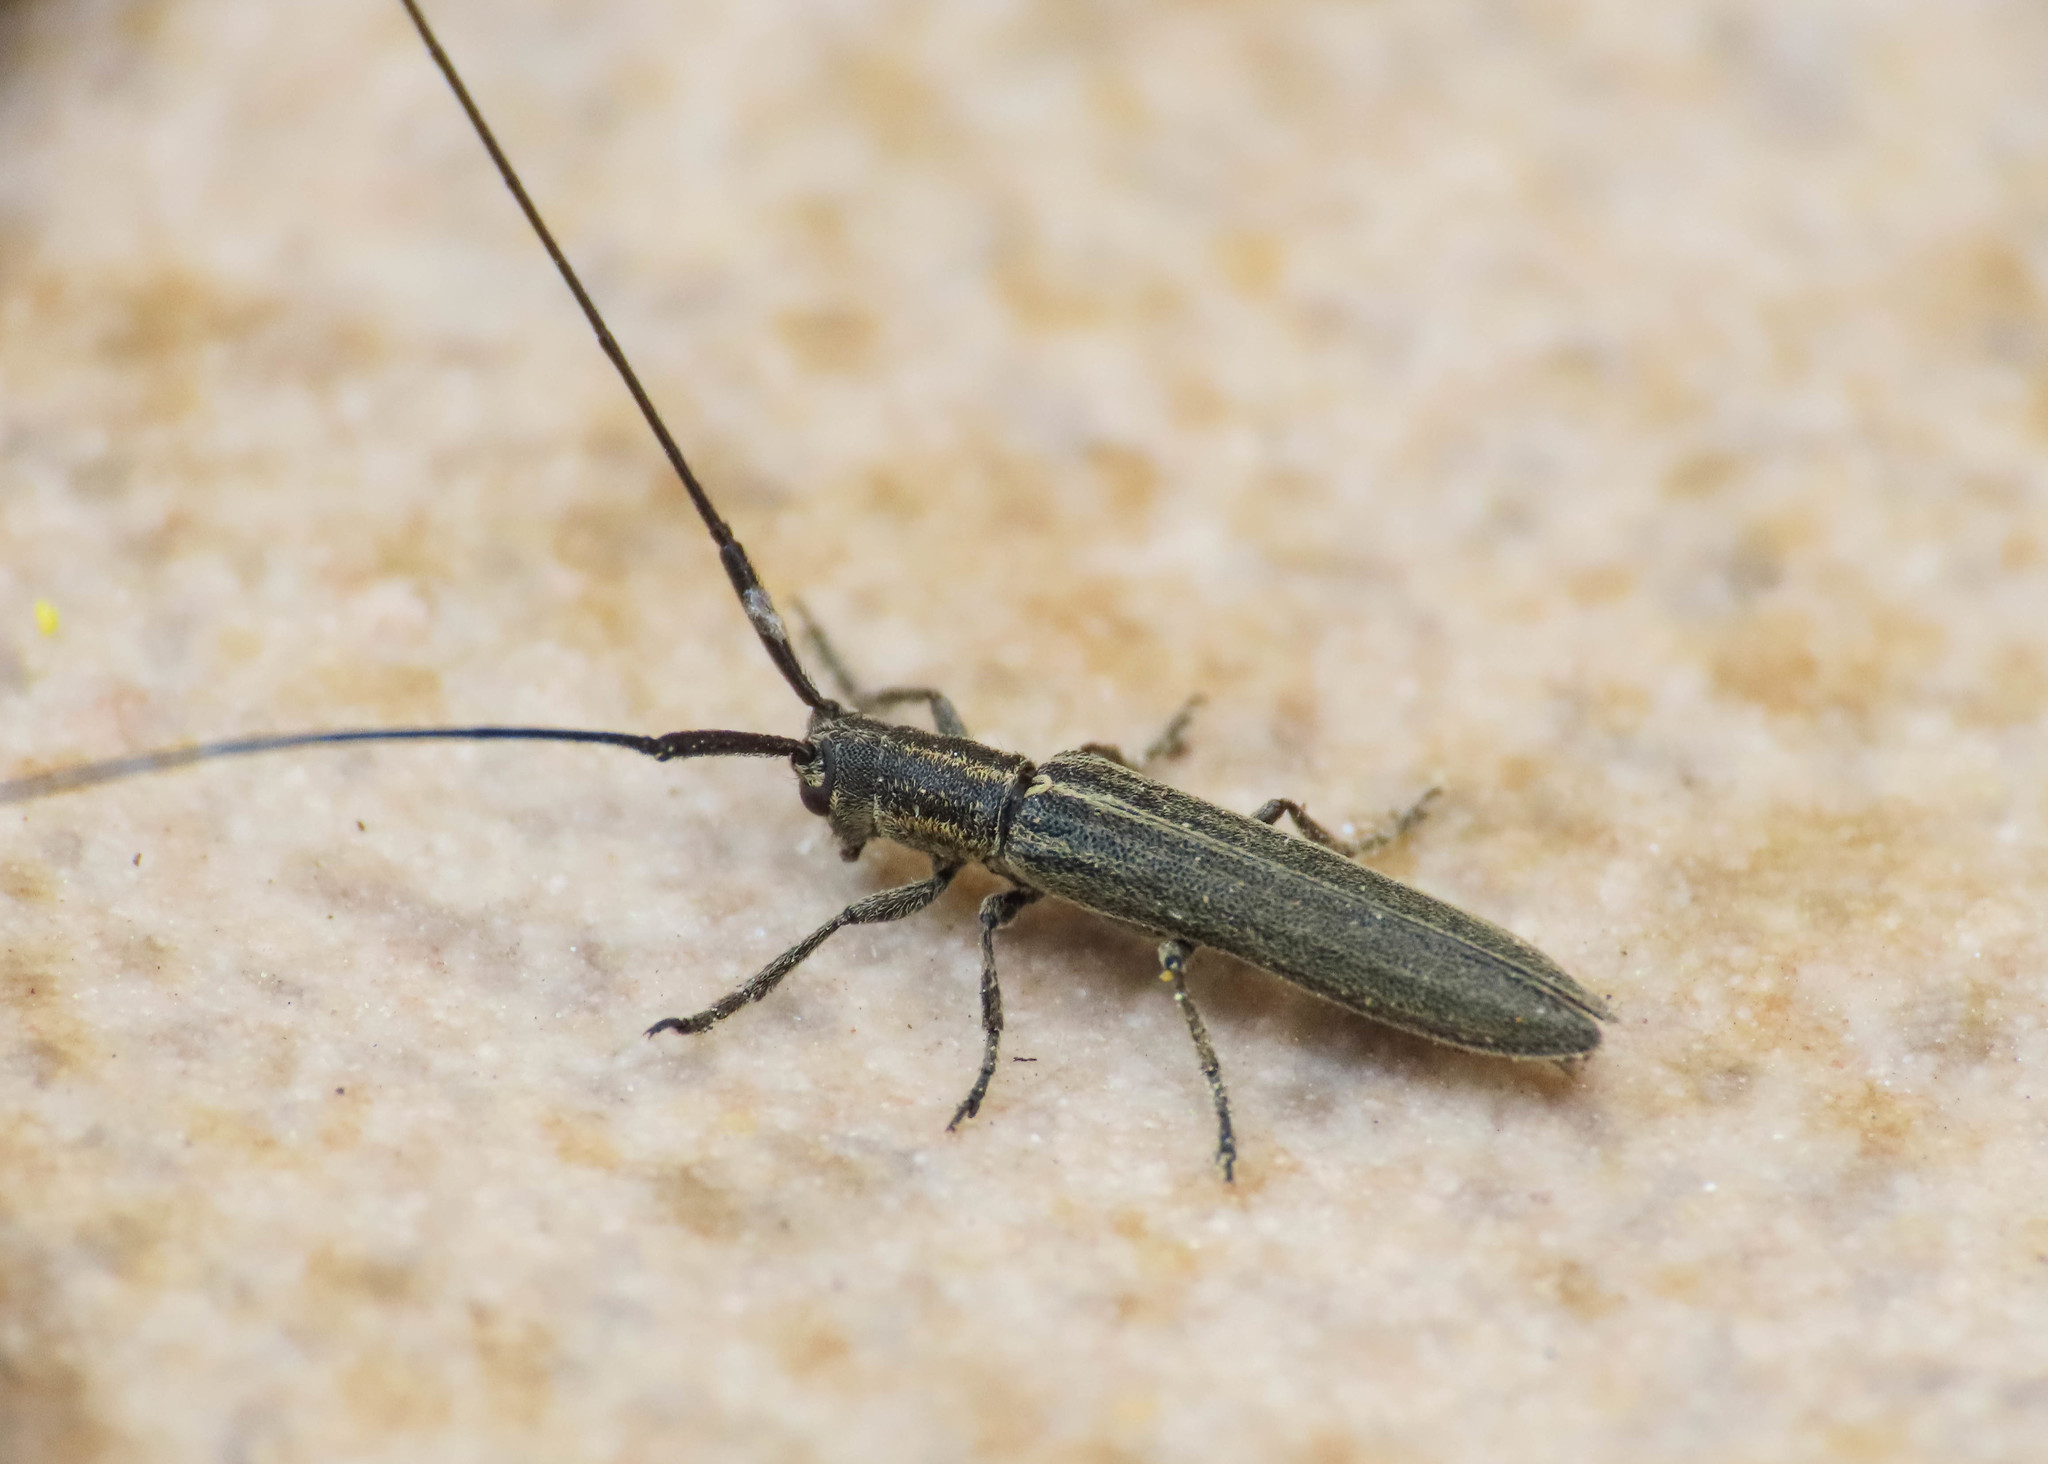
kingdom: Animalia
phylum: Arthropoda
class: Insecta
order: Coleoptera
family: Cerambycidae
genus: Calamobius
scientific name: Calamobius filum
